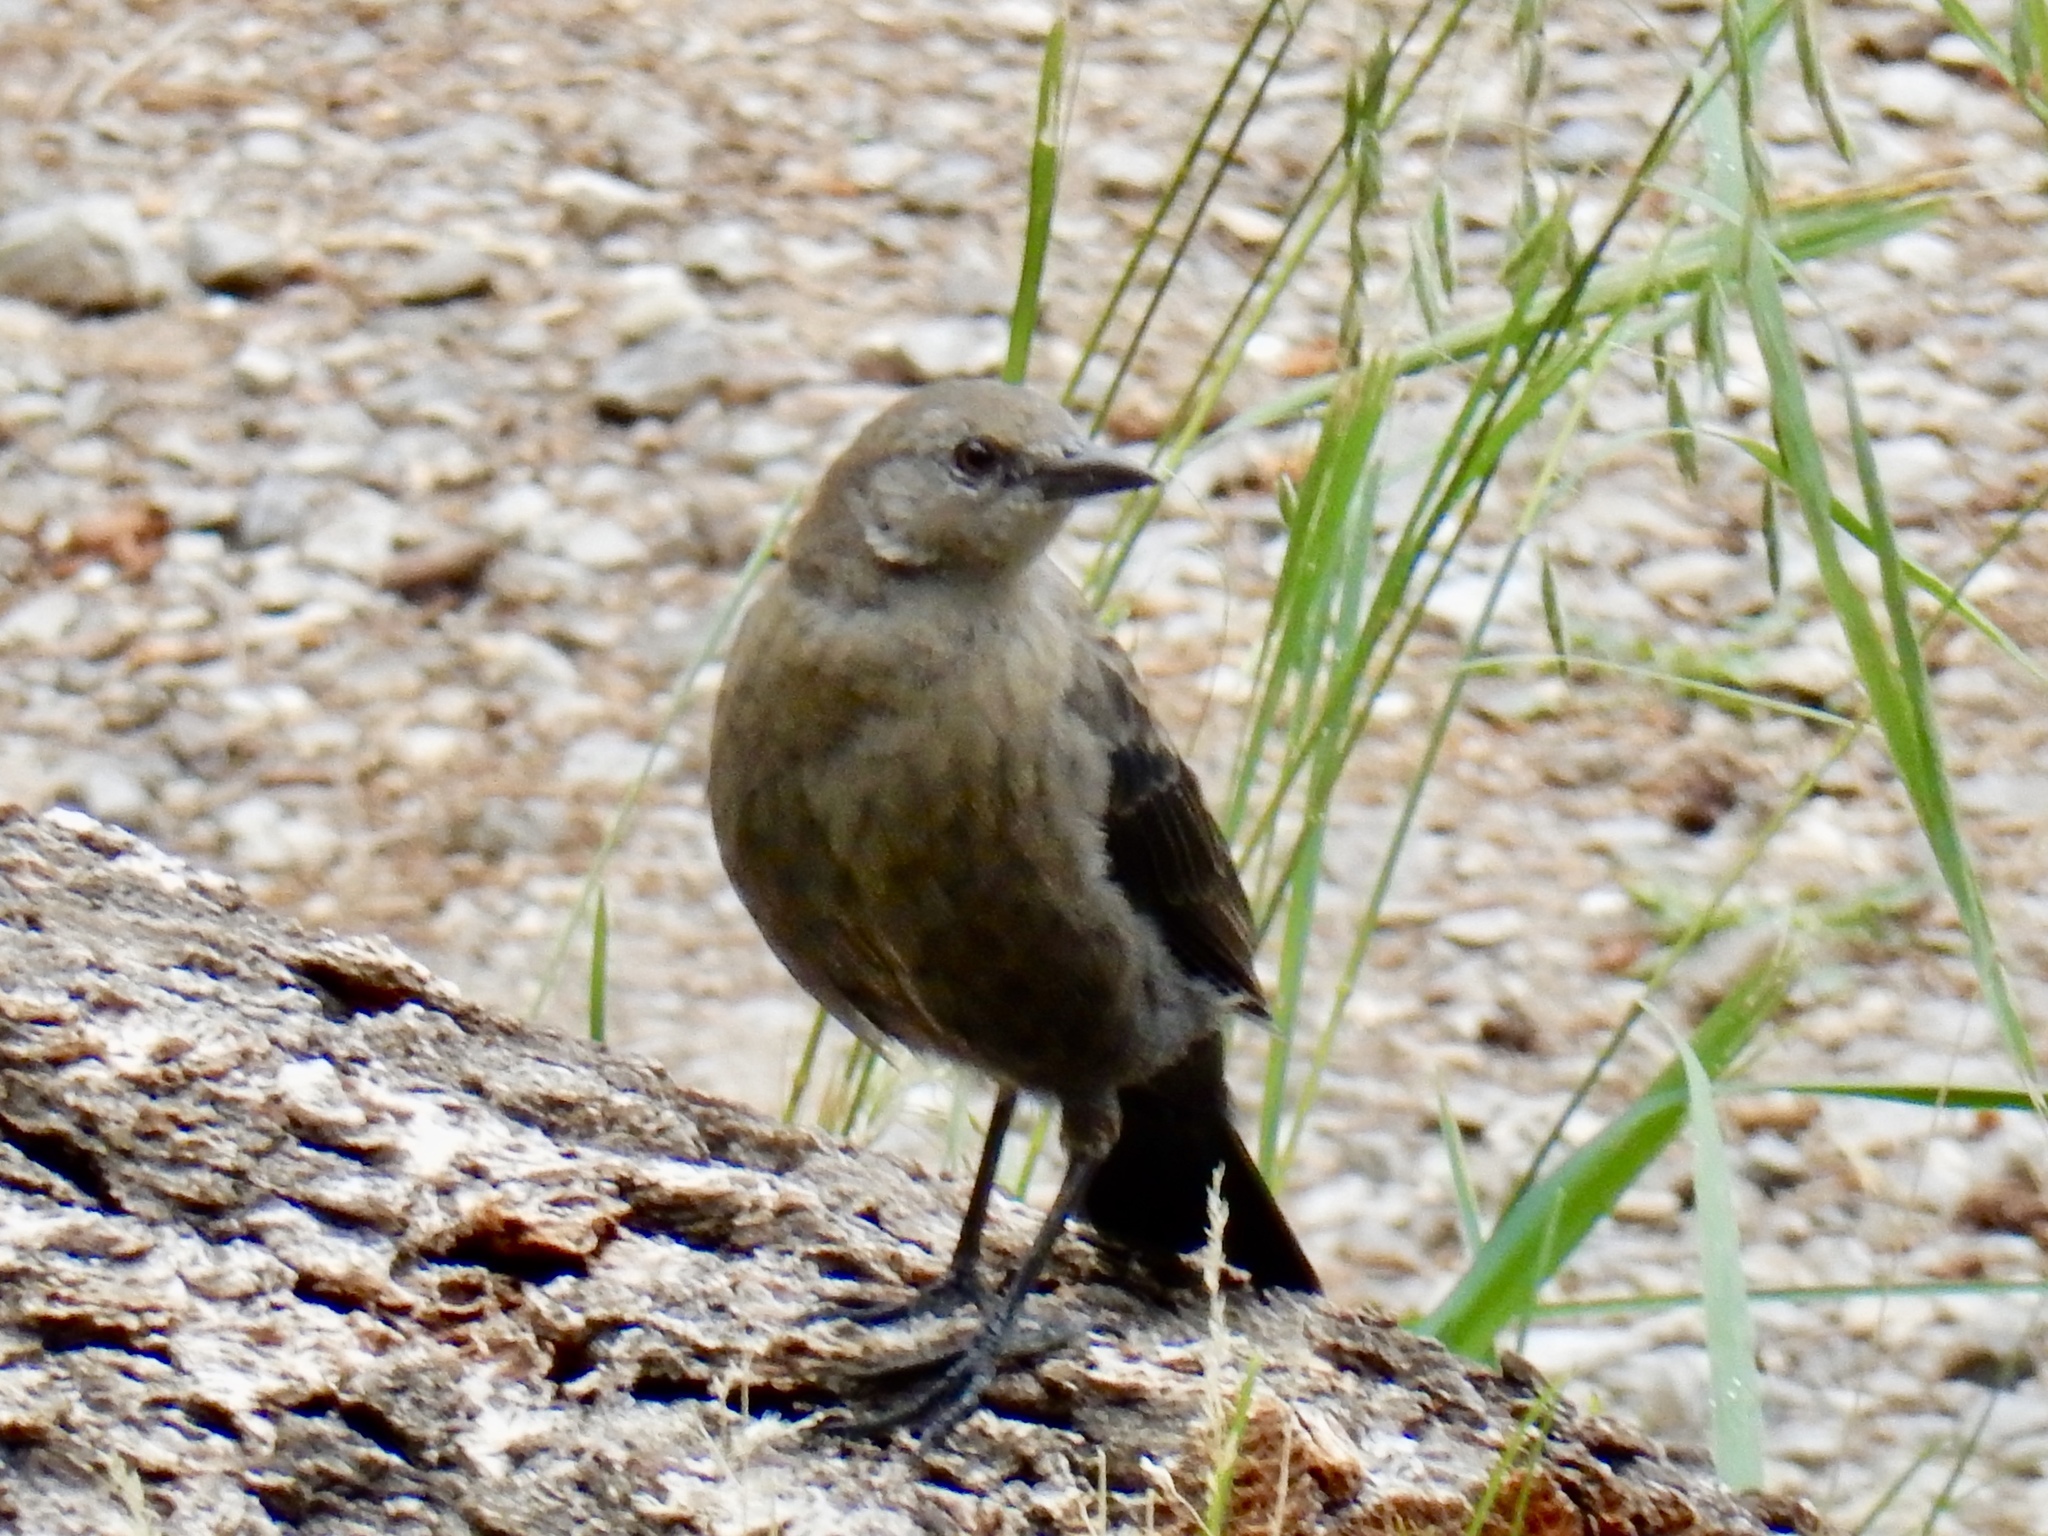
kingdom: Animalia
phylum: Chordata
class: Aves
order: Passeriformes
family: Icteridae
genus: Euphagus
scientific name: Euphagus cyanocephalus
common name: Brewer's blackbird
